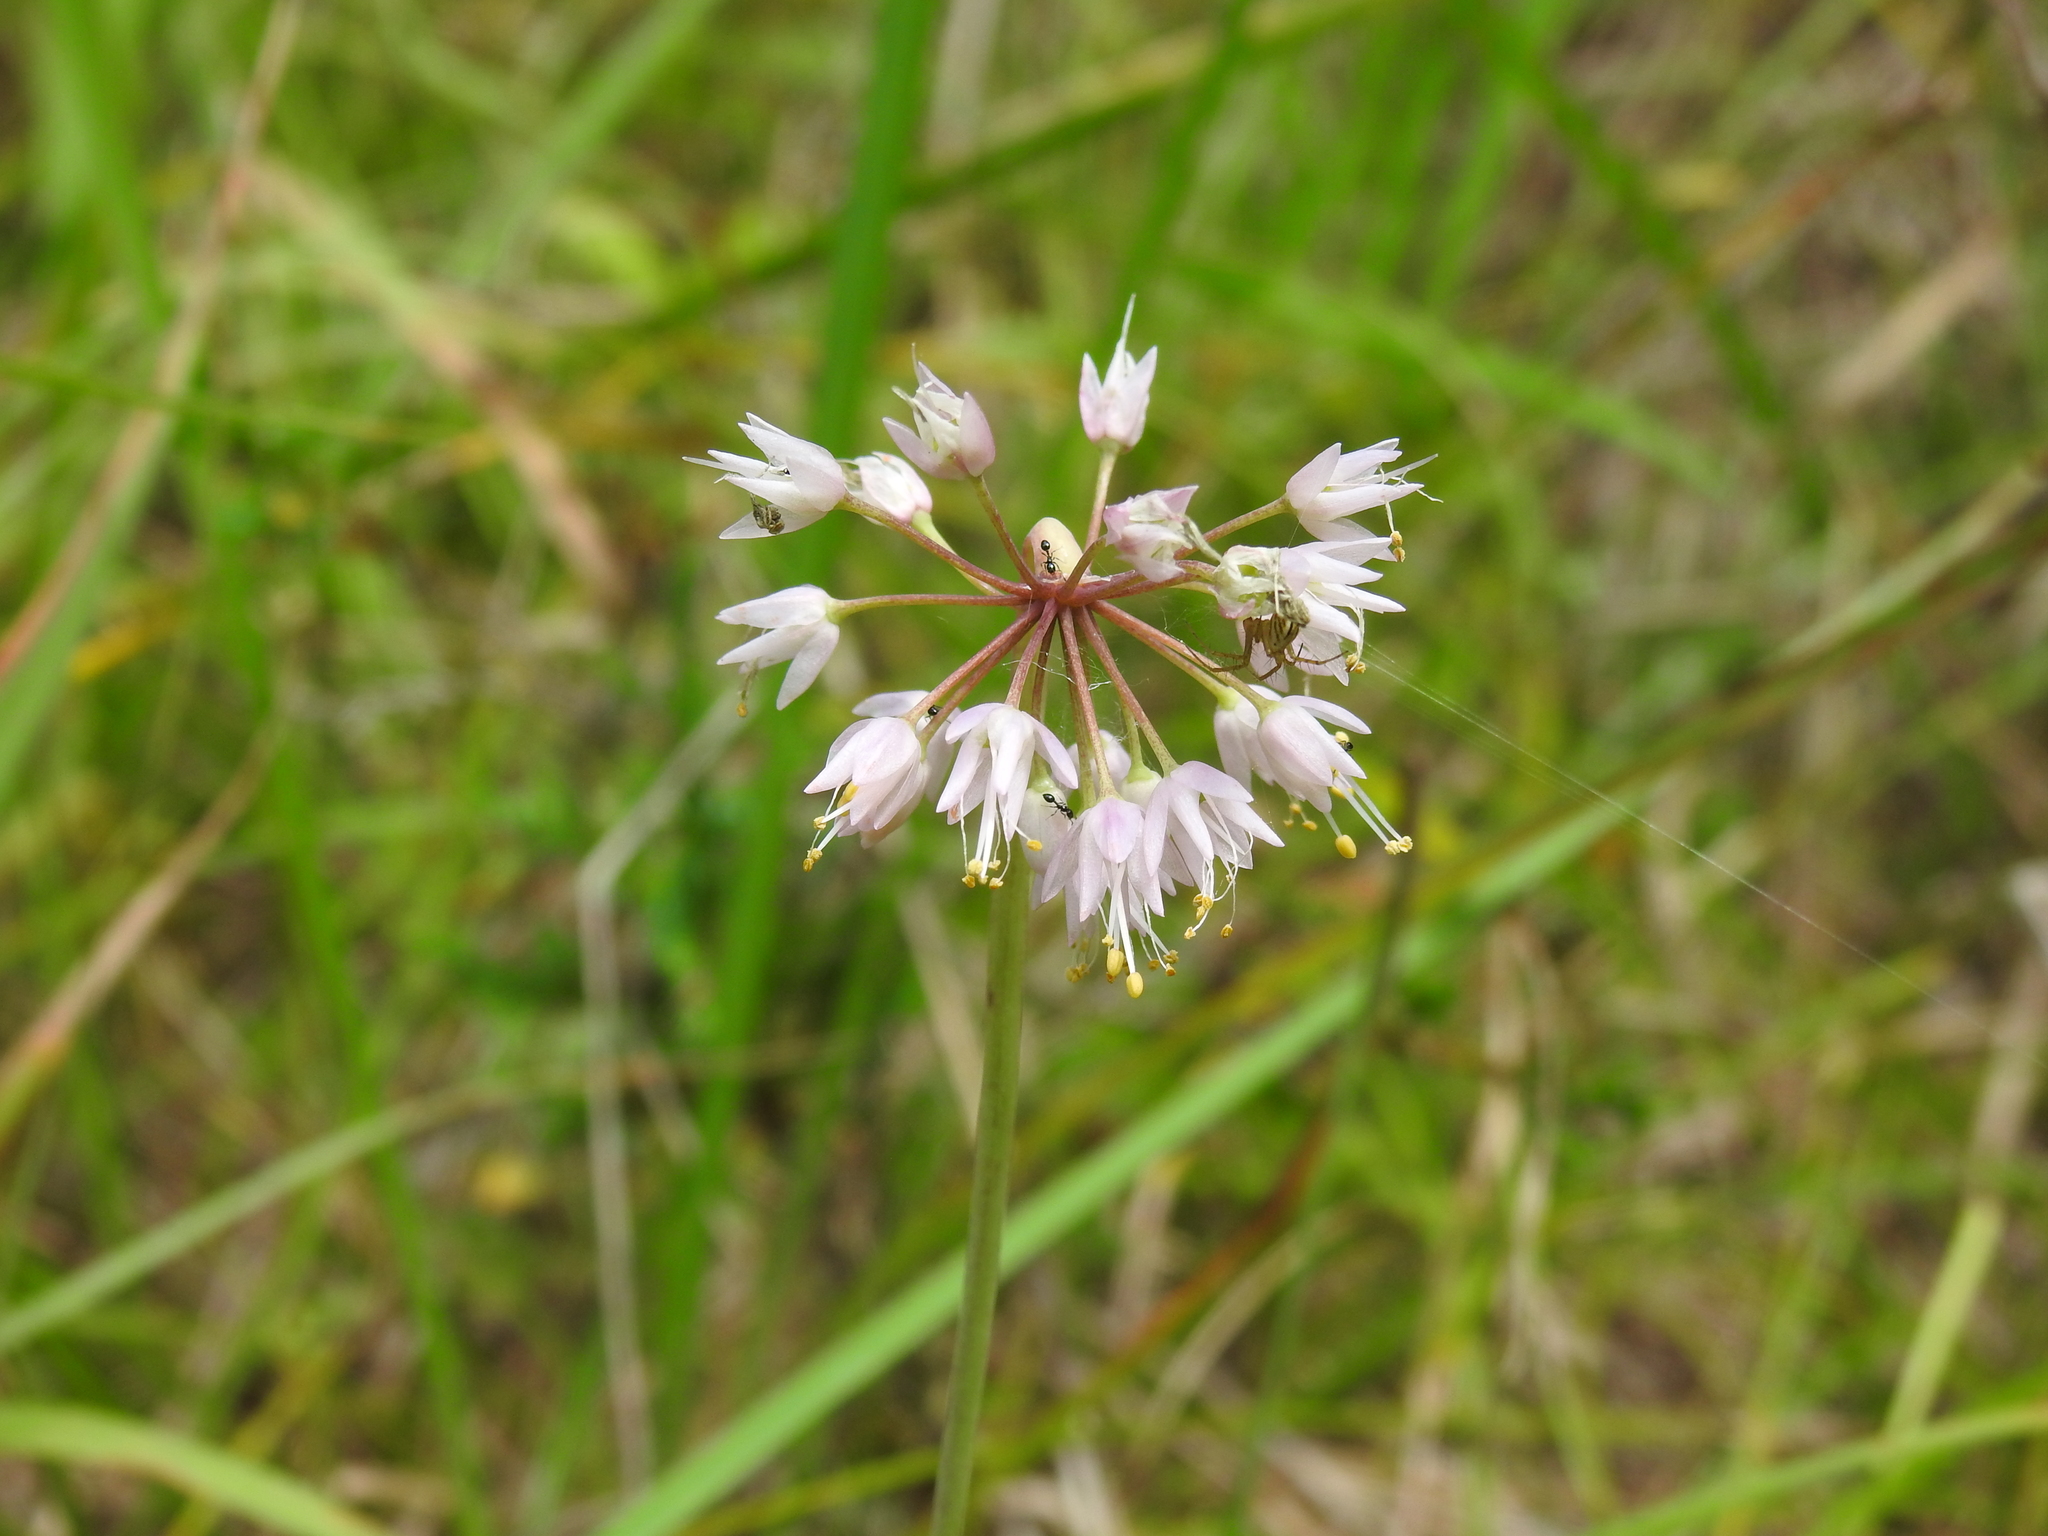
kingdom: Plantae
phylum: Tracheophyta
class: Liliopsida
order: Asparagales
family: Amaryllidaceae
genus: Allium
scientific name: Allium cernuum
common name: Nodding onion
